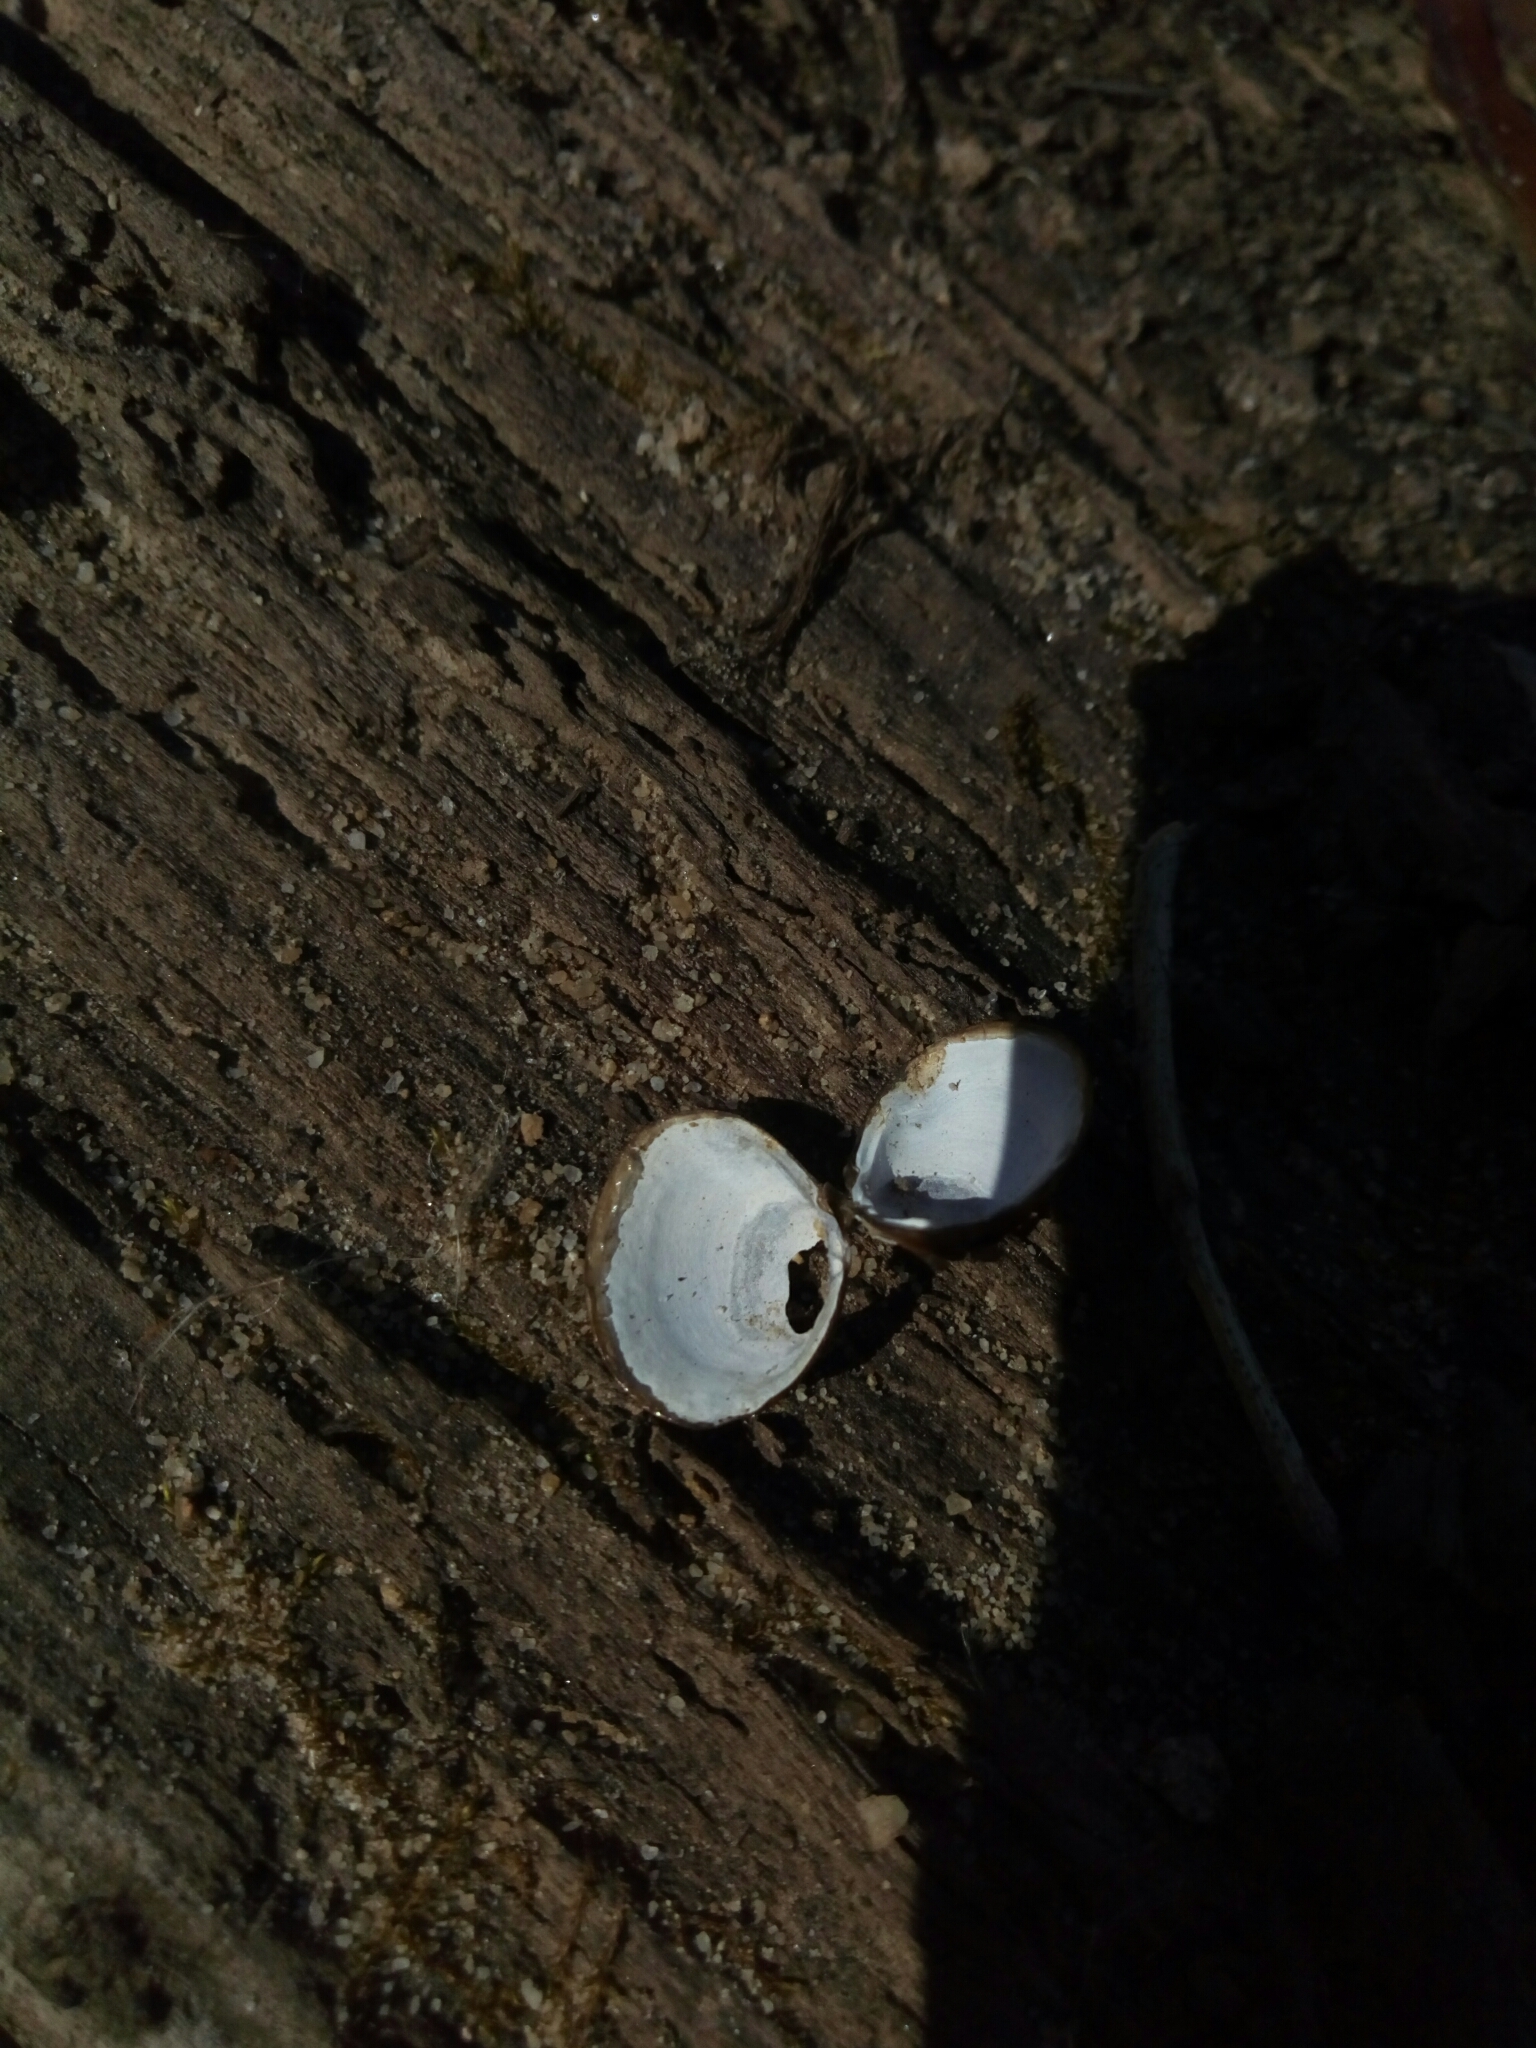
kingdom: Animalia
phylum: Mollusca
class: Bivalvia
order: Venerida
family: Cyrenidae
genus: Corbicula
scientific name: Corbicula fluminea
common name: Asian clam
